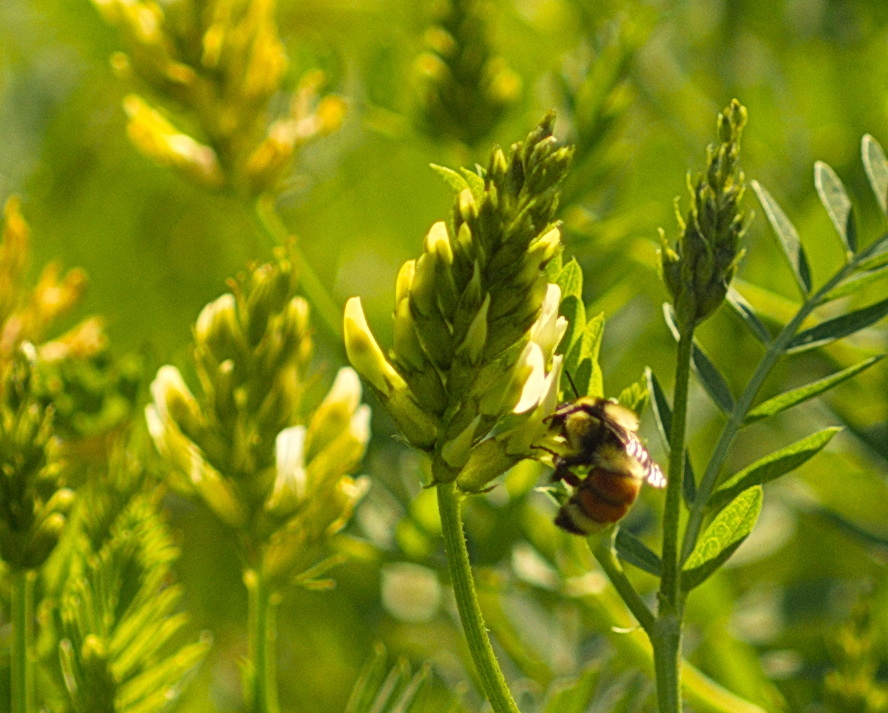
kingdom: Animalia
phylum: Arthropoda
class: Insecta
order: Hymenoptera
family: Apidae
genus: Bombus
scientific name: Bombus huntii
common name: Hunt bumble bee
